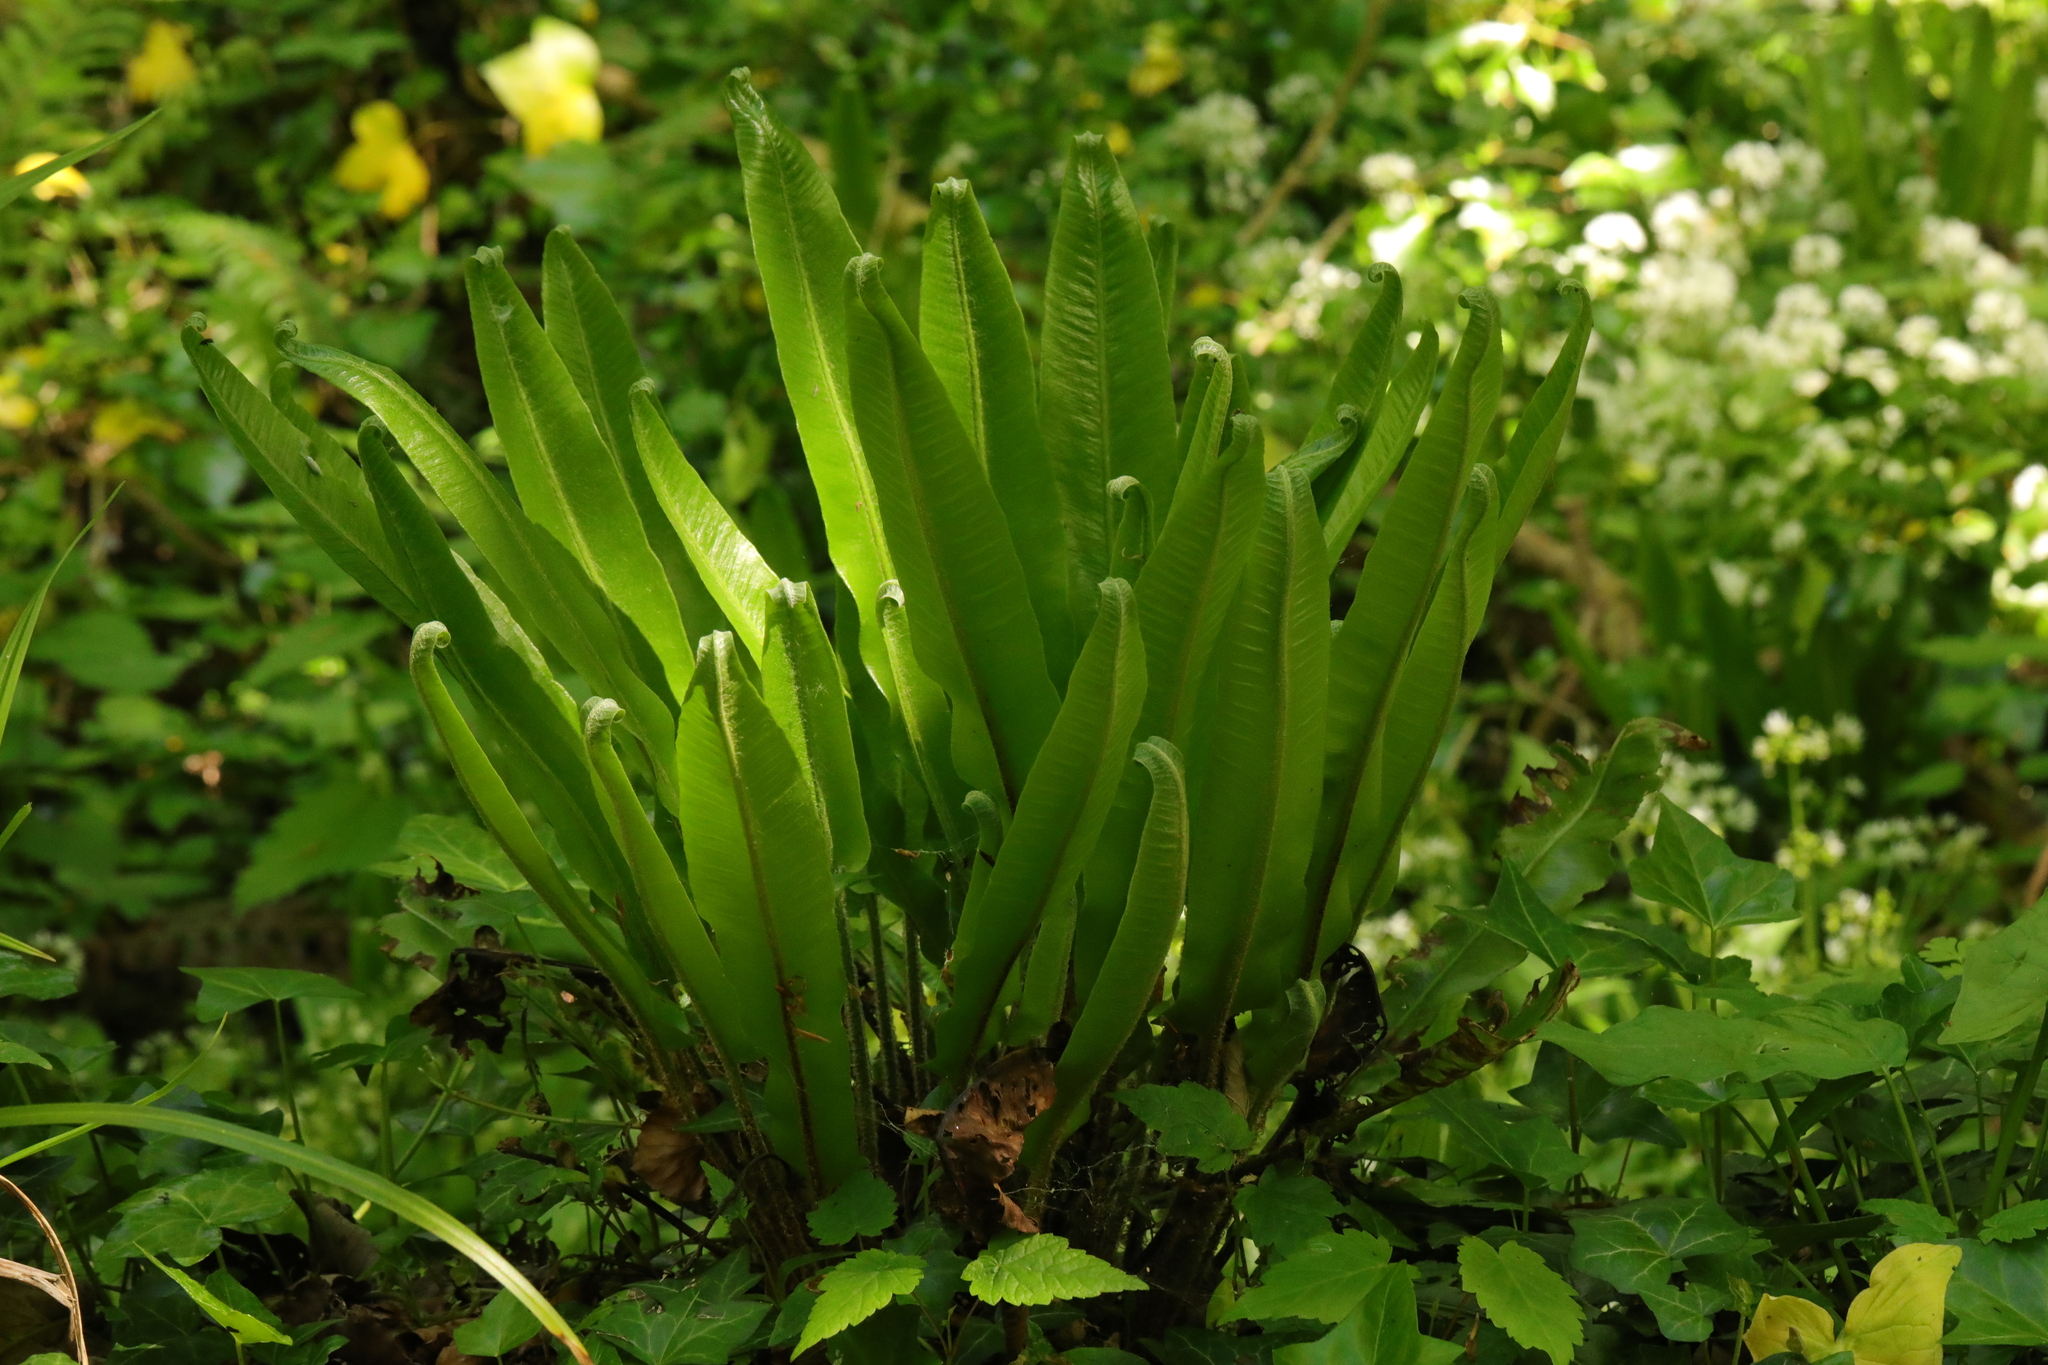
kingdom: Plantae
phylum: Tracheophyta
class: Polypodiopsida
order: Polypodiales
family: Aspleniaceae
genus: Asplenium
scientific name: Asplenium scolopendrium
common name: Hart's-tongue fern
